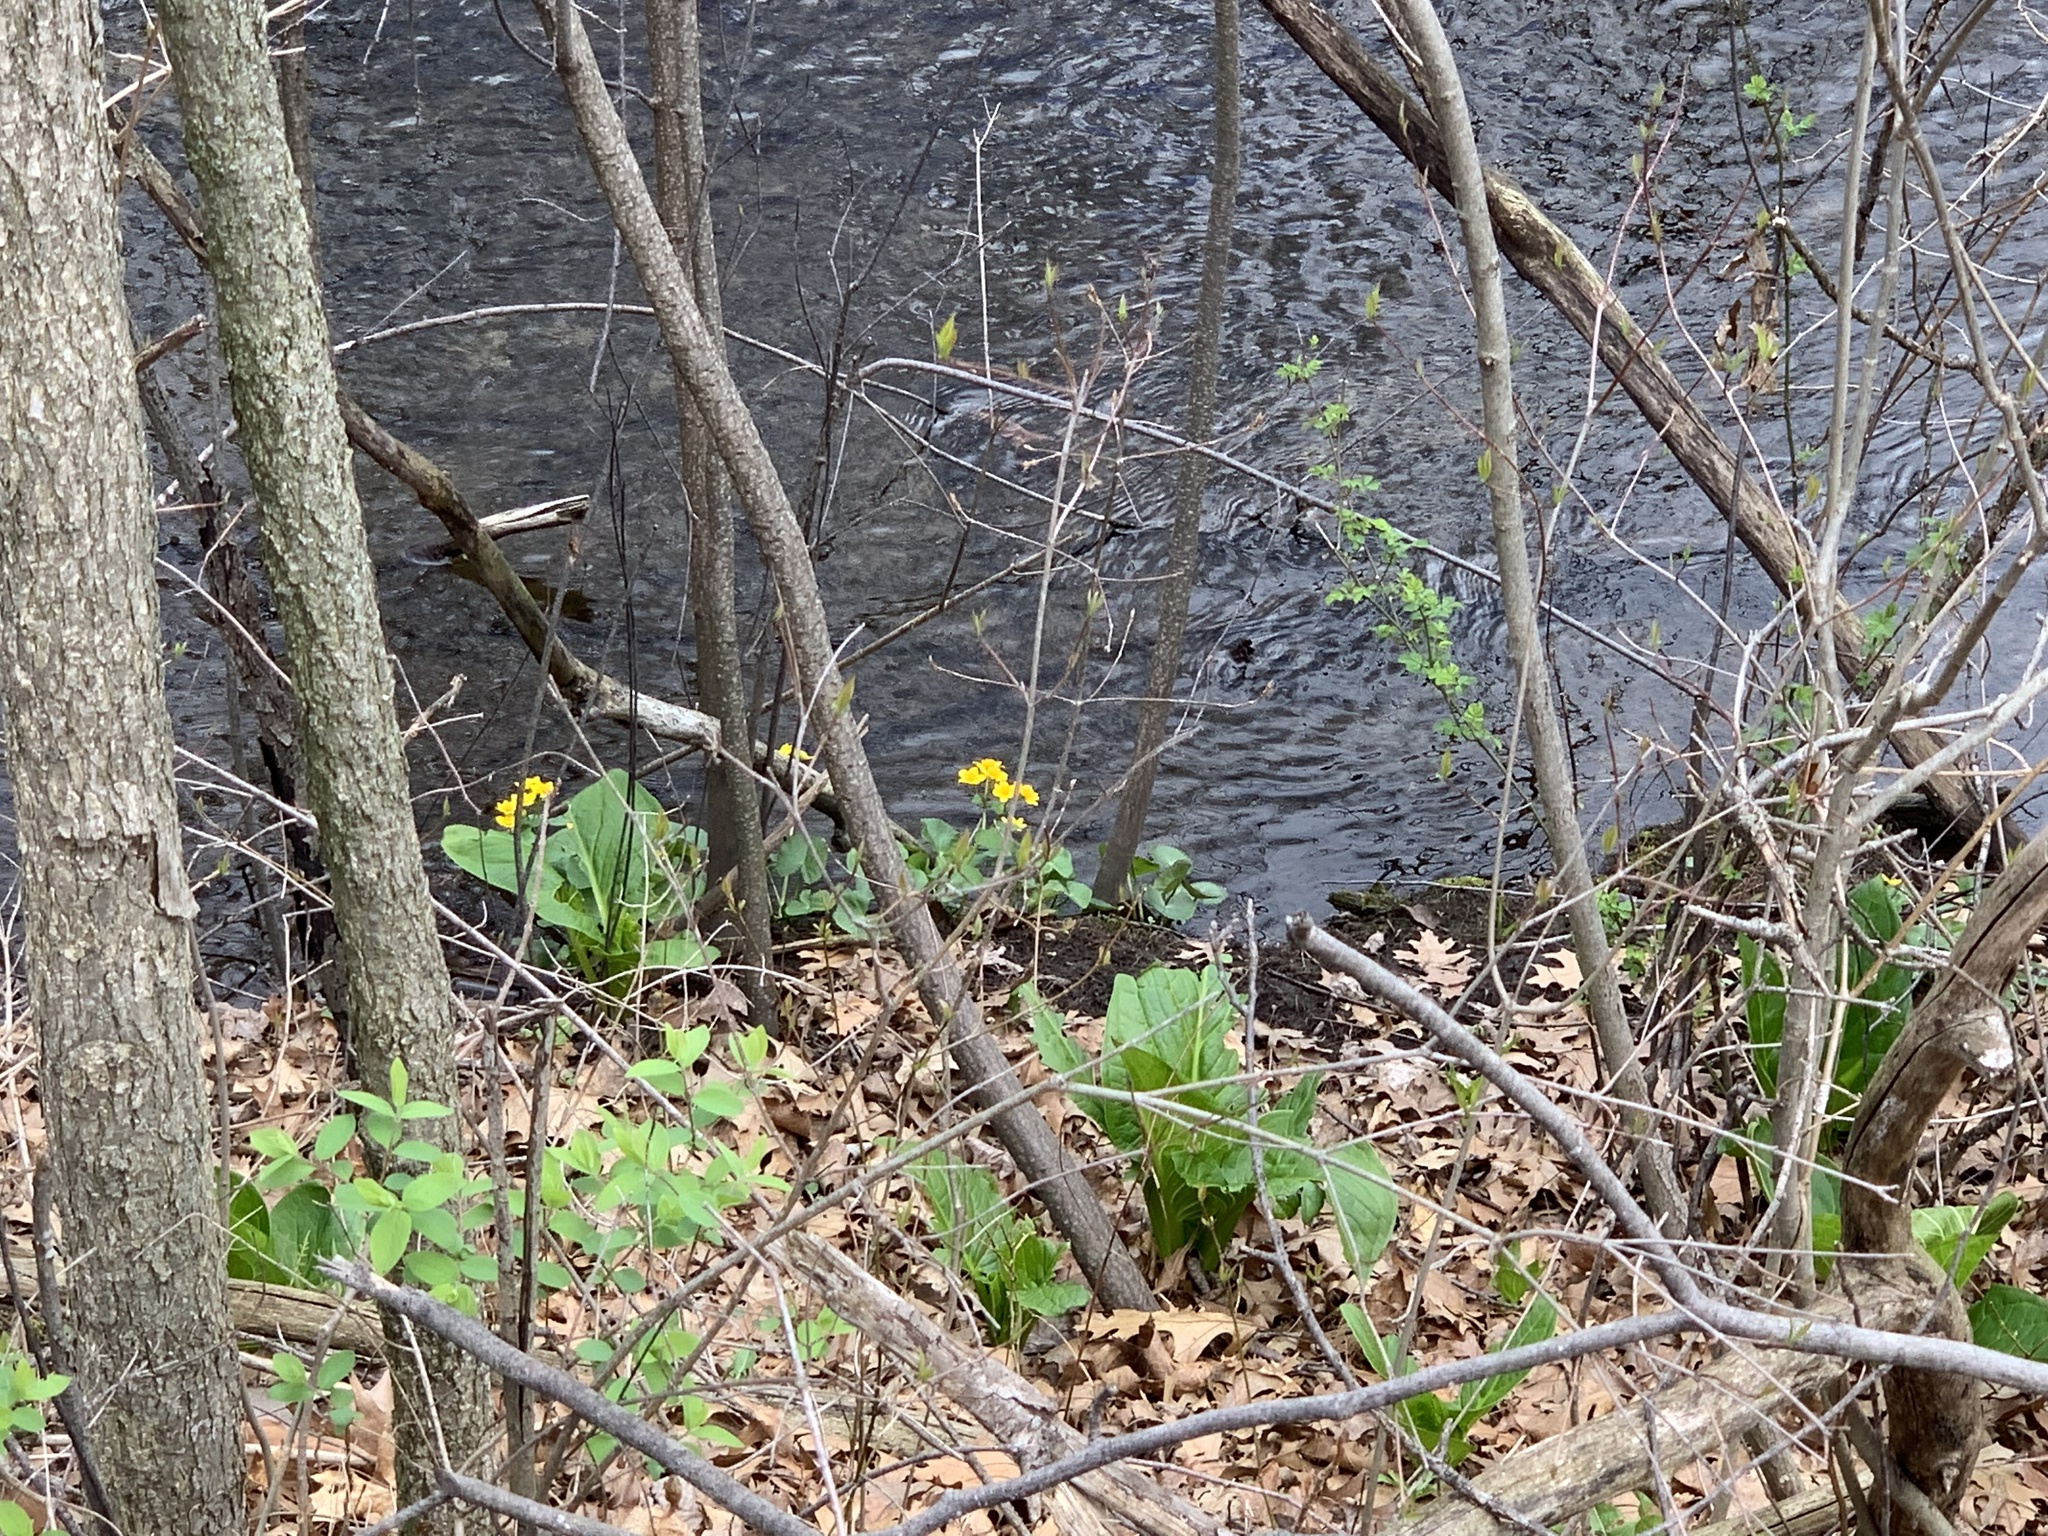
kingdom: Plantae
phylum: Tracheophyta
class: Magnoliopsida
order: Ranunculales
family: Ranunculaceae
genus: Caltha
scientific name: Caltha palustris
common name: Marsh marigold
